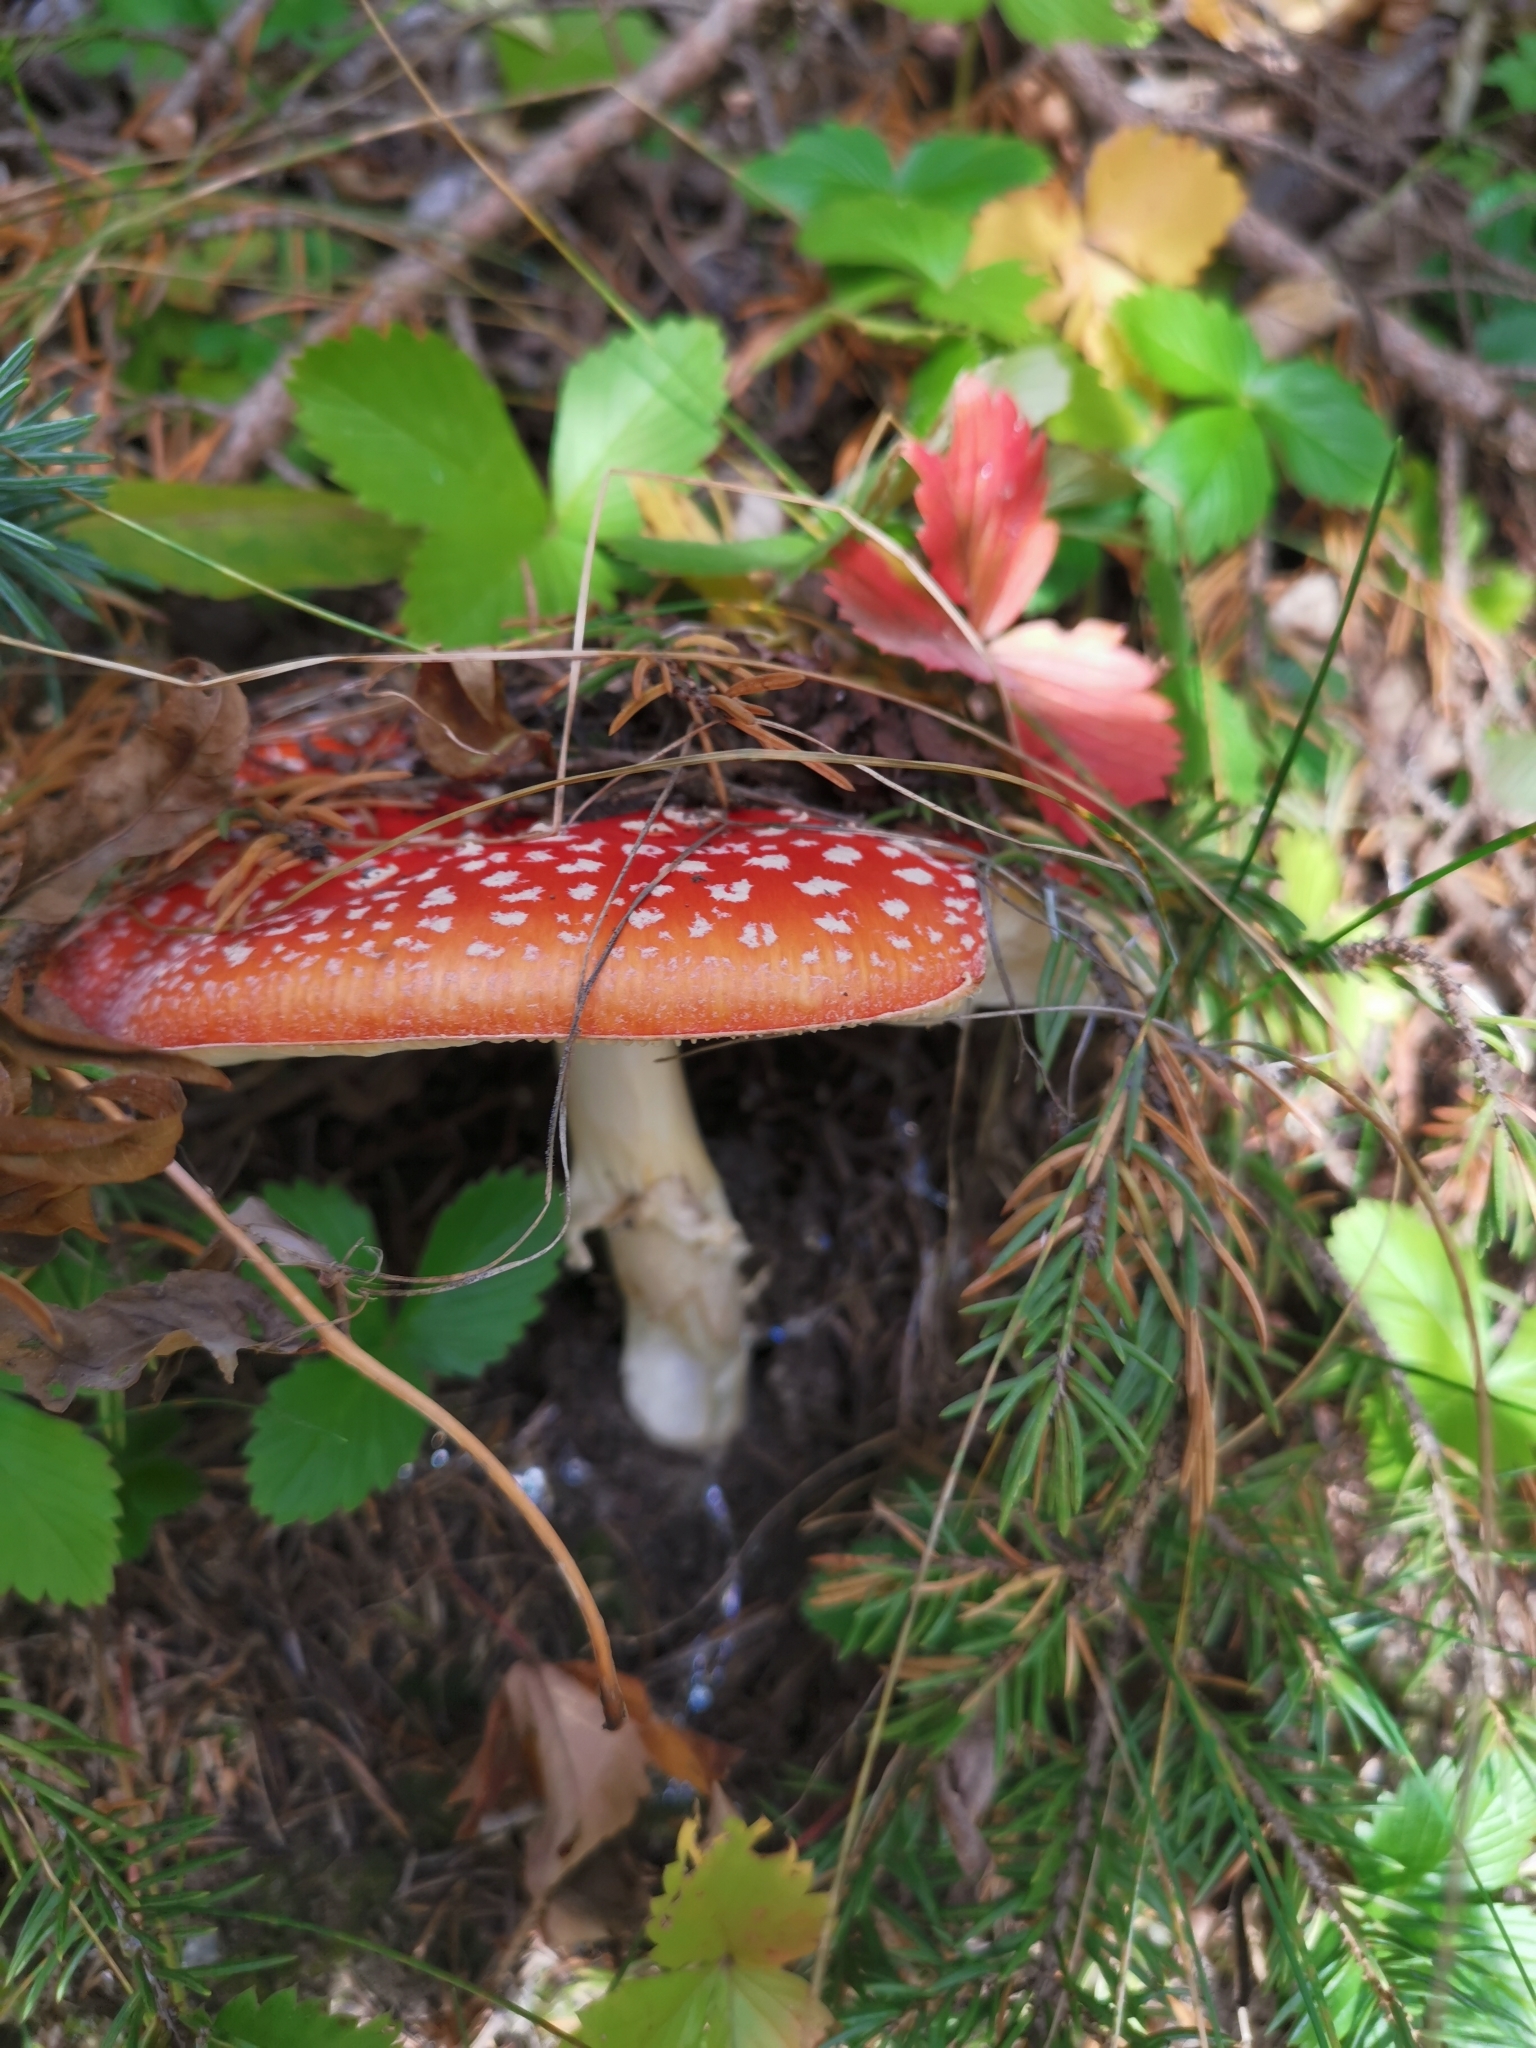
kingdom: Fungi
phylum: Basidiomycota
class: Agaricomycetes
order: Agaricales
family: Amanitaceae
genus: Amanita
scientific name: Amanita muscaria
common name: Fly agaric
